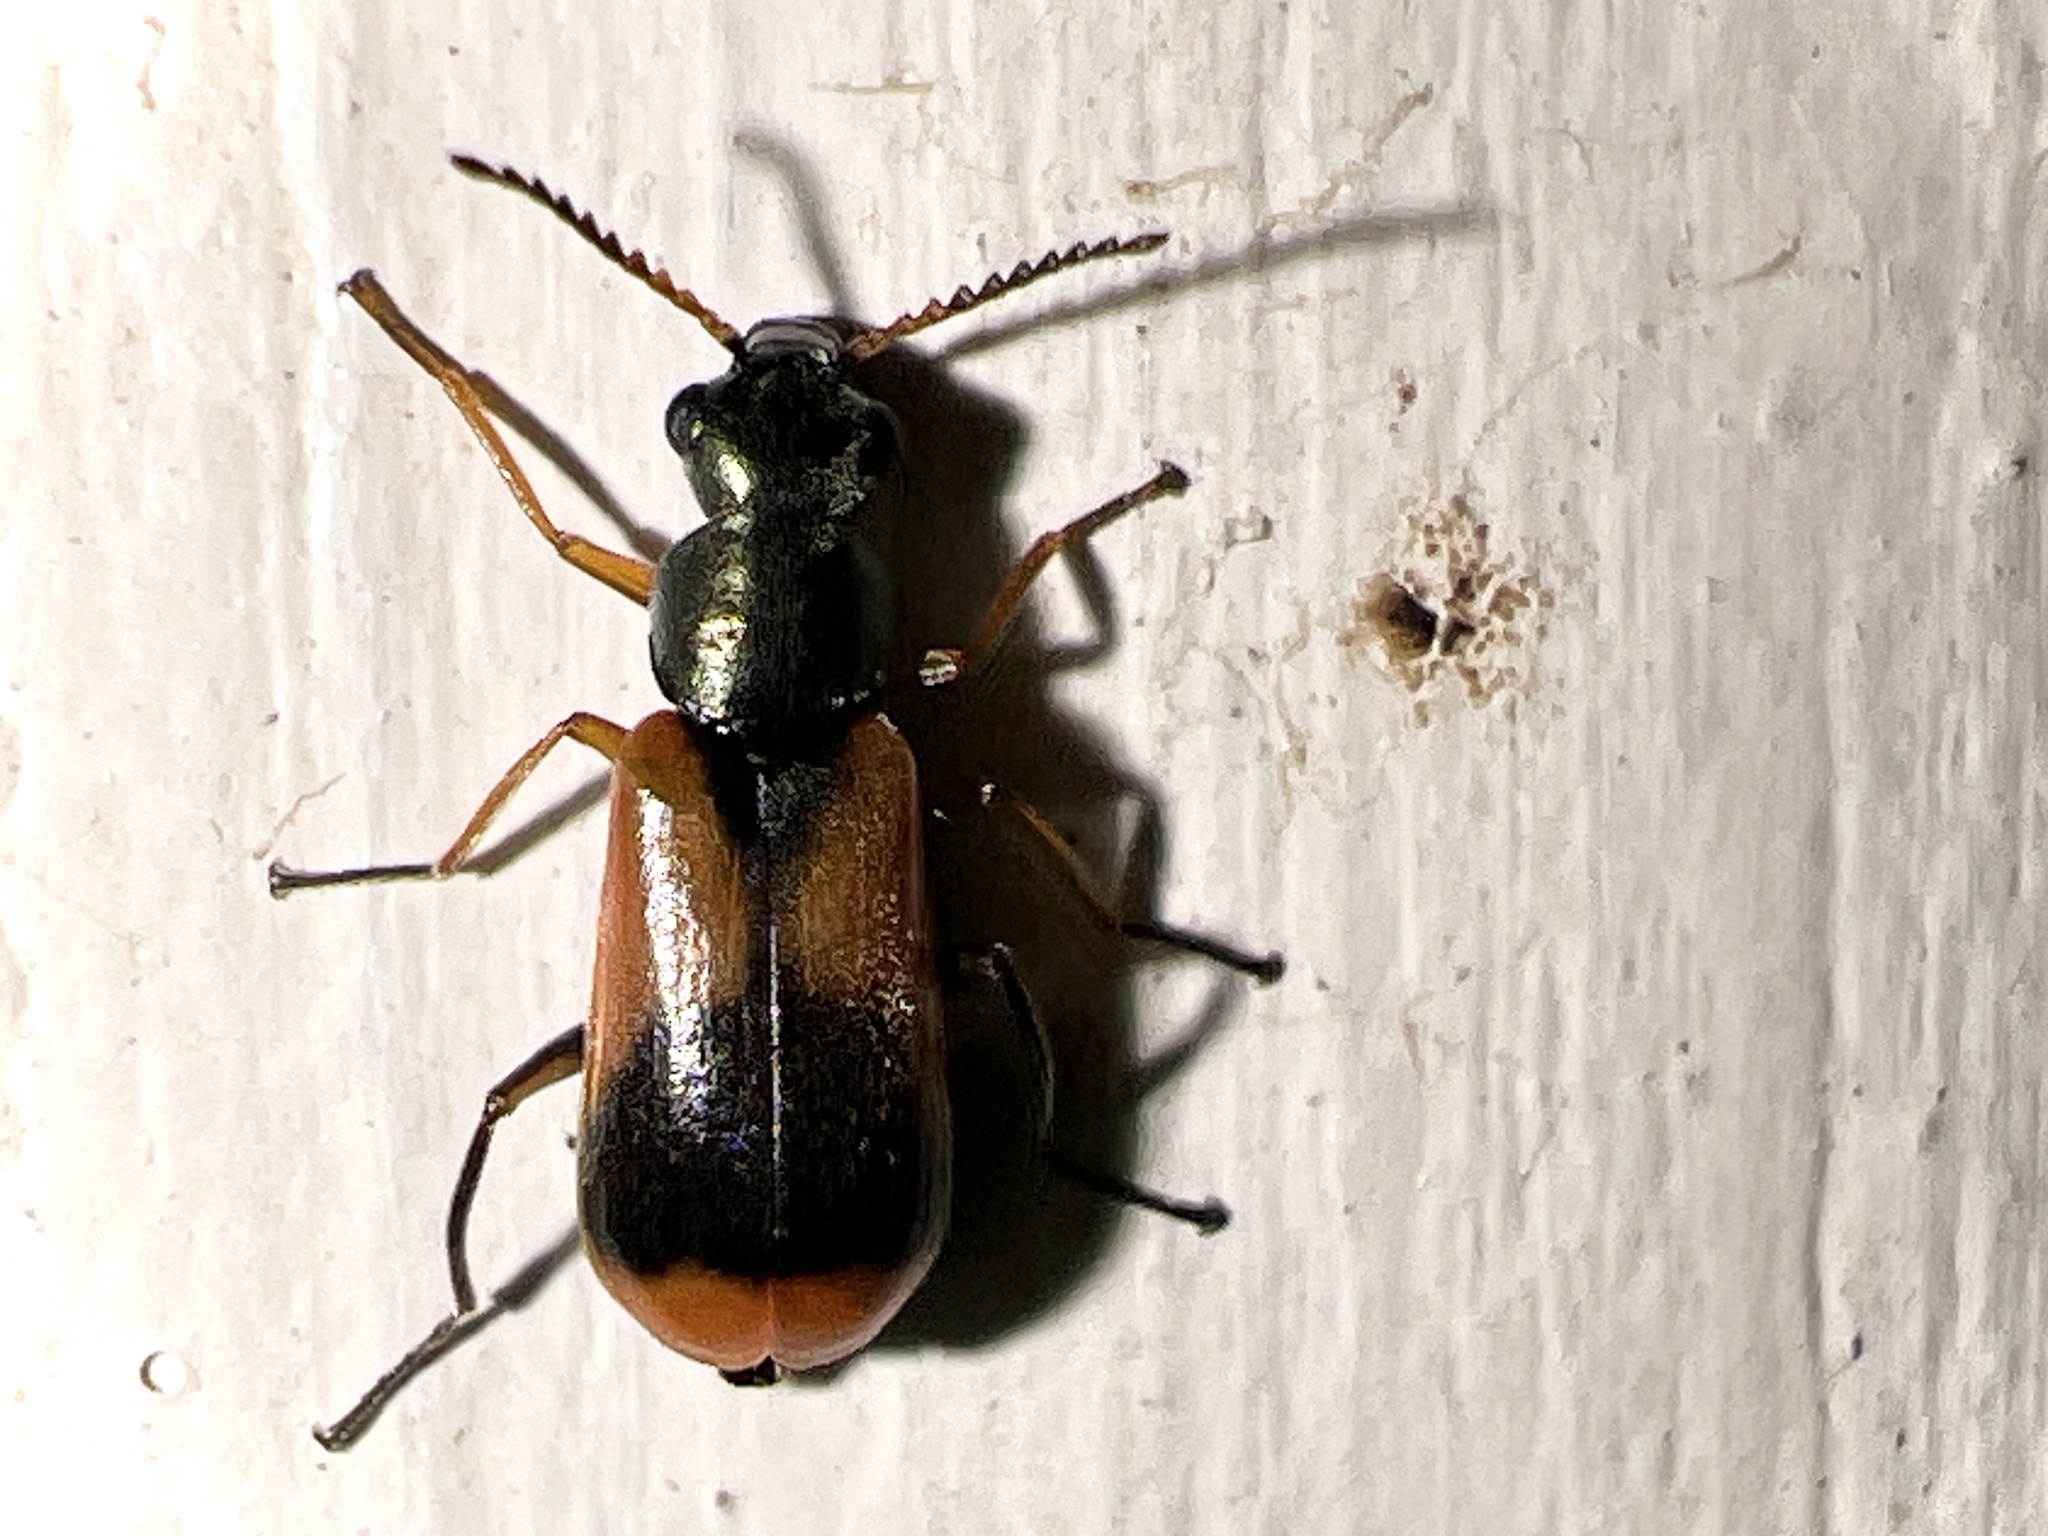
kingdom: Animalia
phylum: Arthropoda
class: Insecta
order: Coleoptera
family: Melyridae
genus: Anthocomus
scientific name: Anthocomus equestris
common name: Black-banded soft-winged flower beetle
